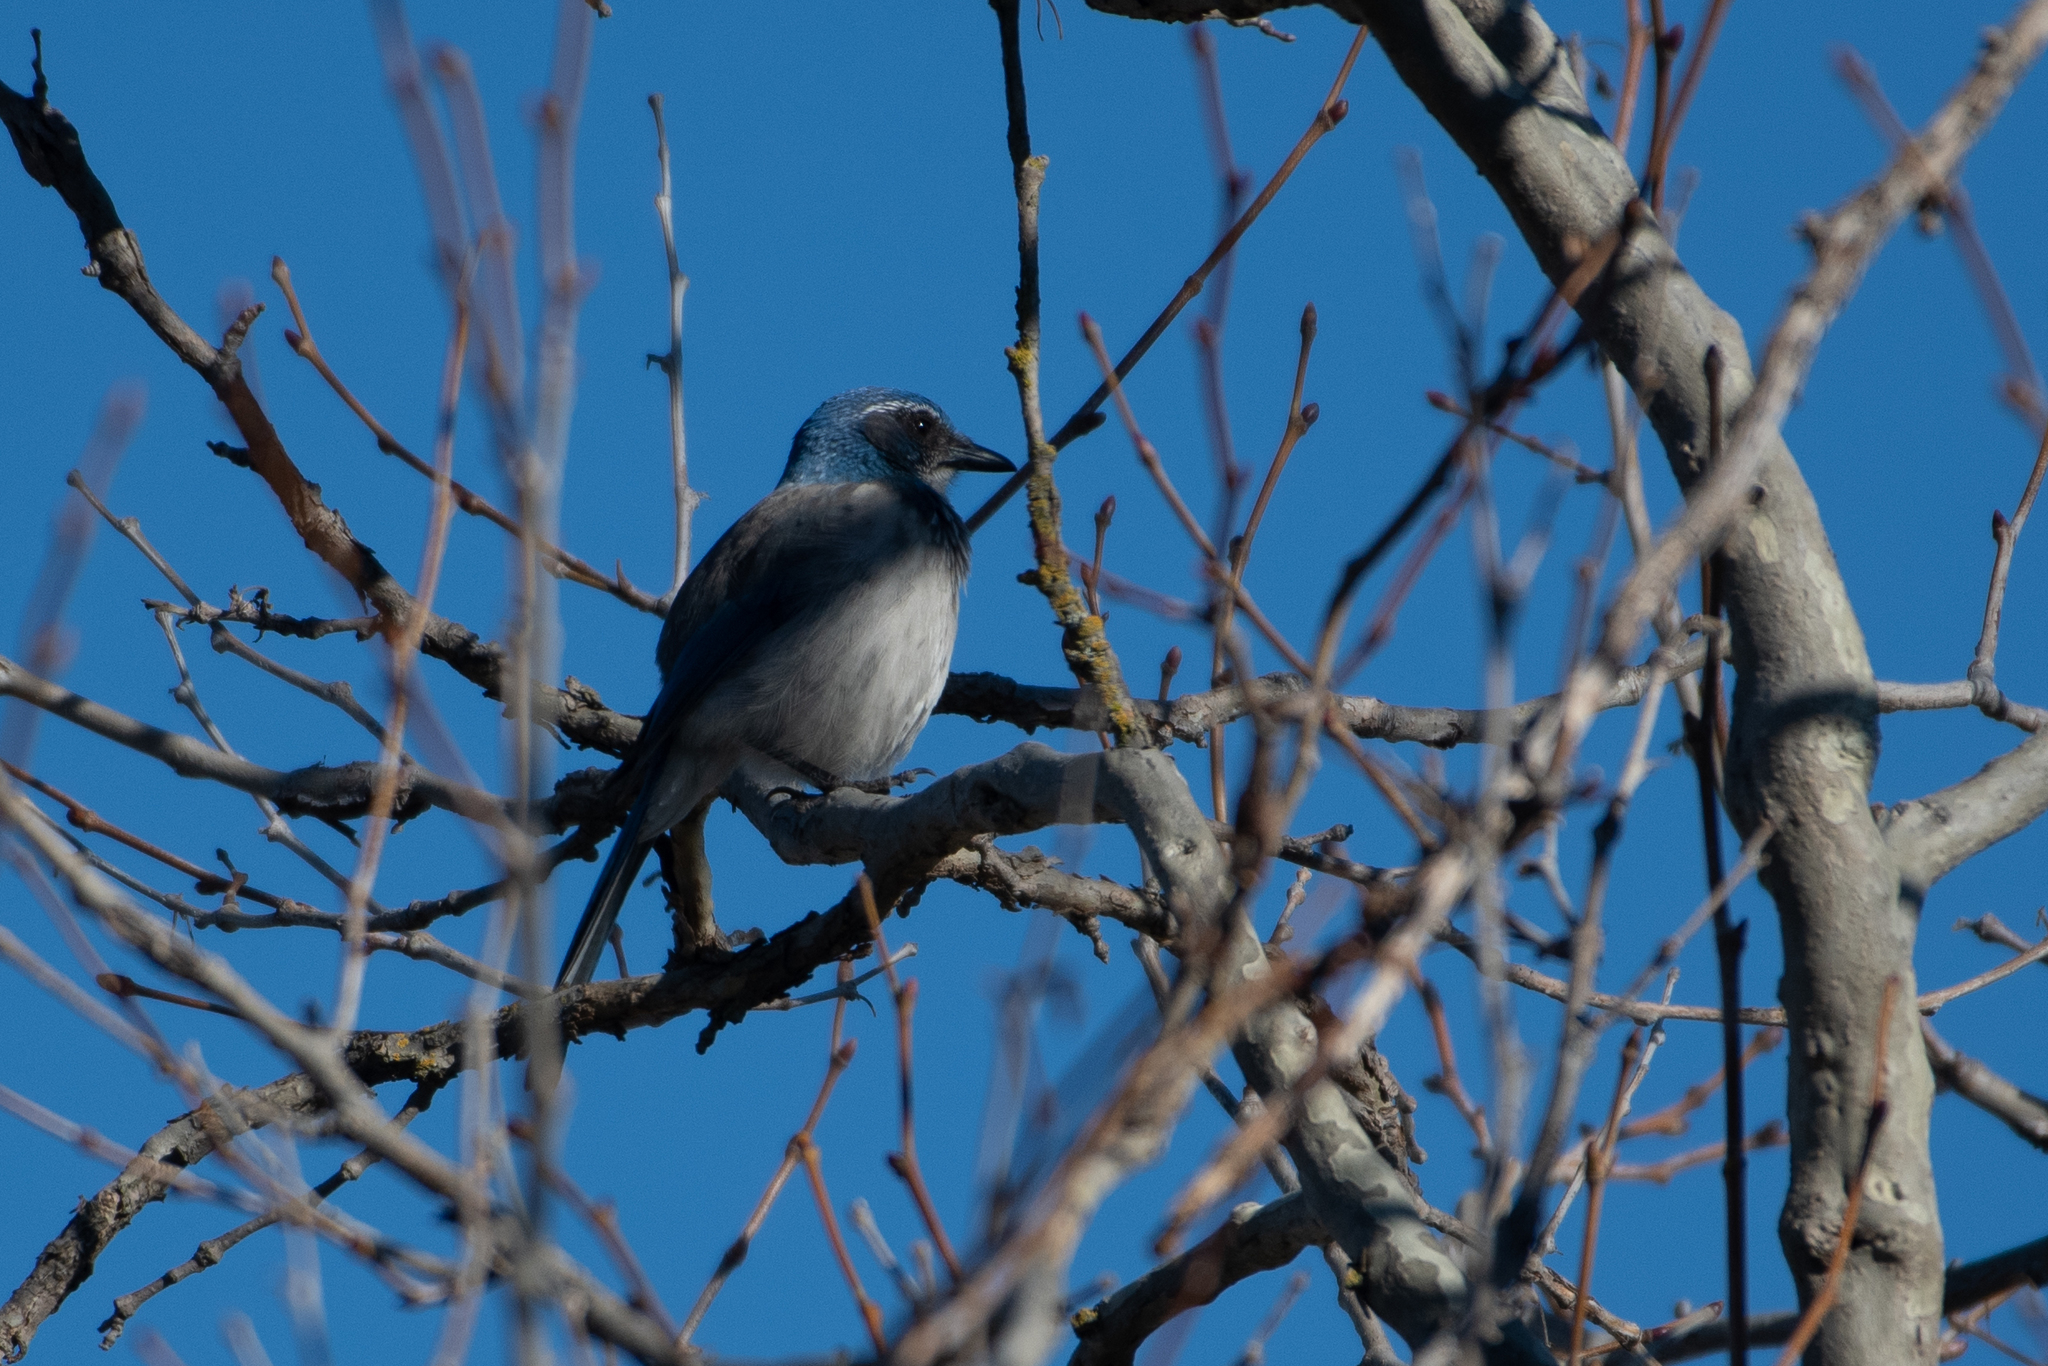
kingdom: Animalia
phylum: Chordata
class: Aves
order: Passeriformes
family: Corvidae
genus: Aphelocoma
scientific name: Aphelocoma californica
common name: California scrub-jay
